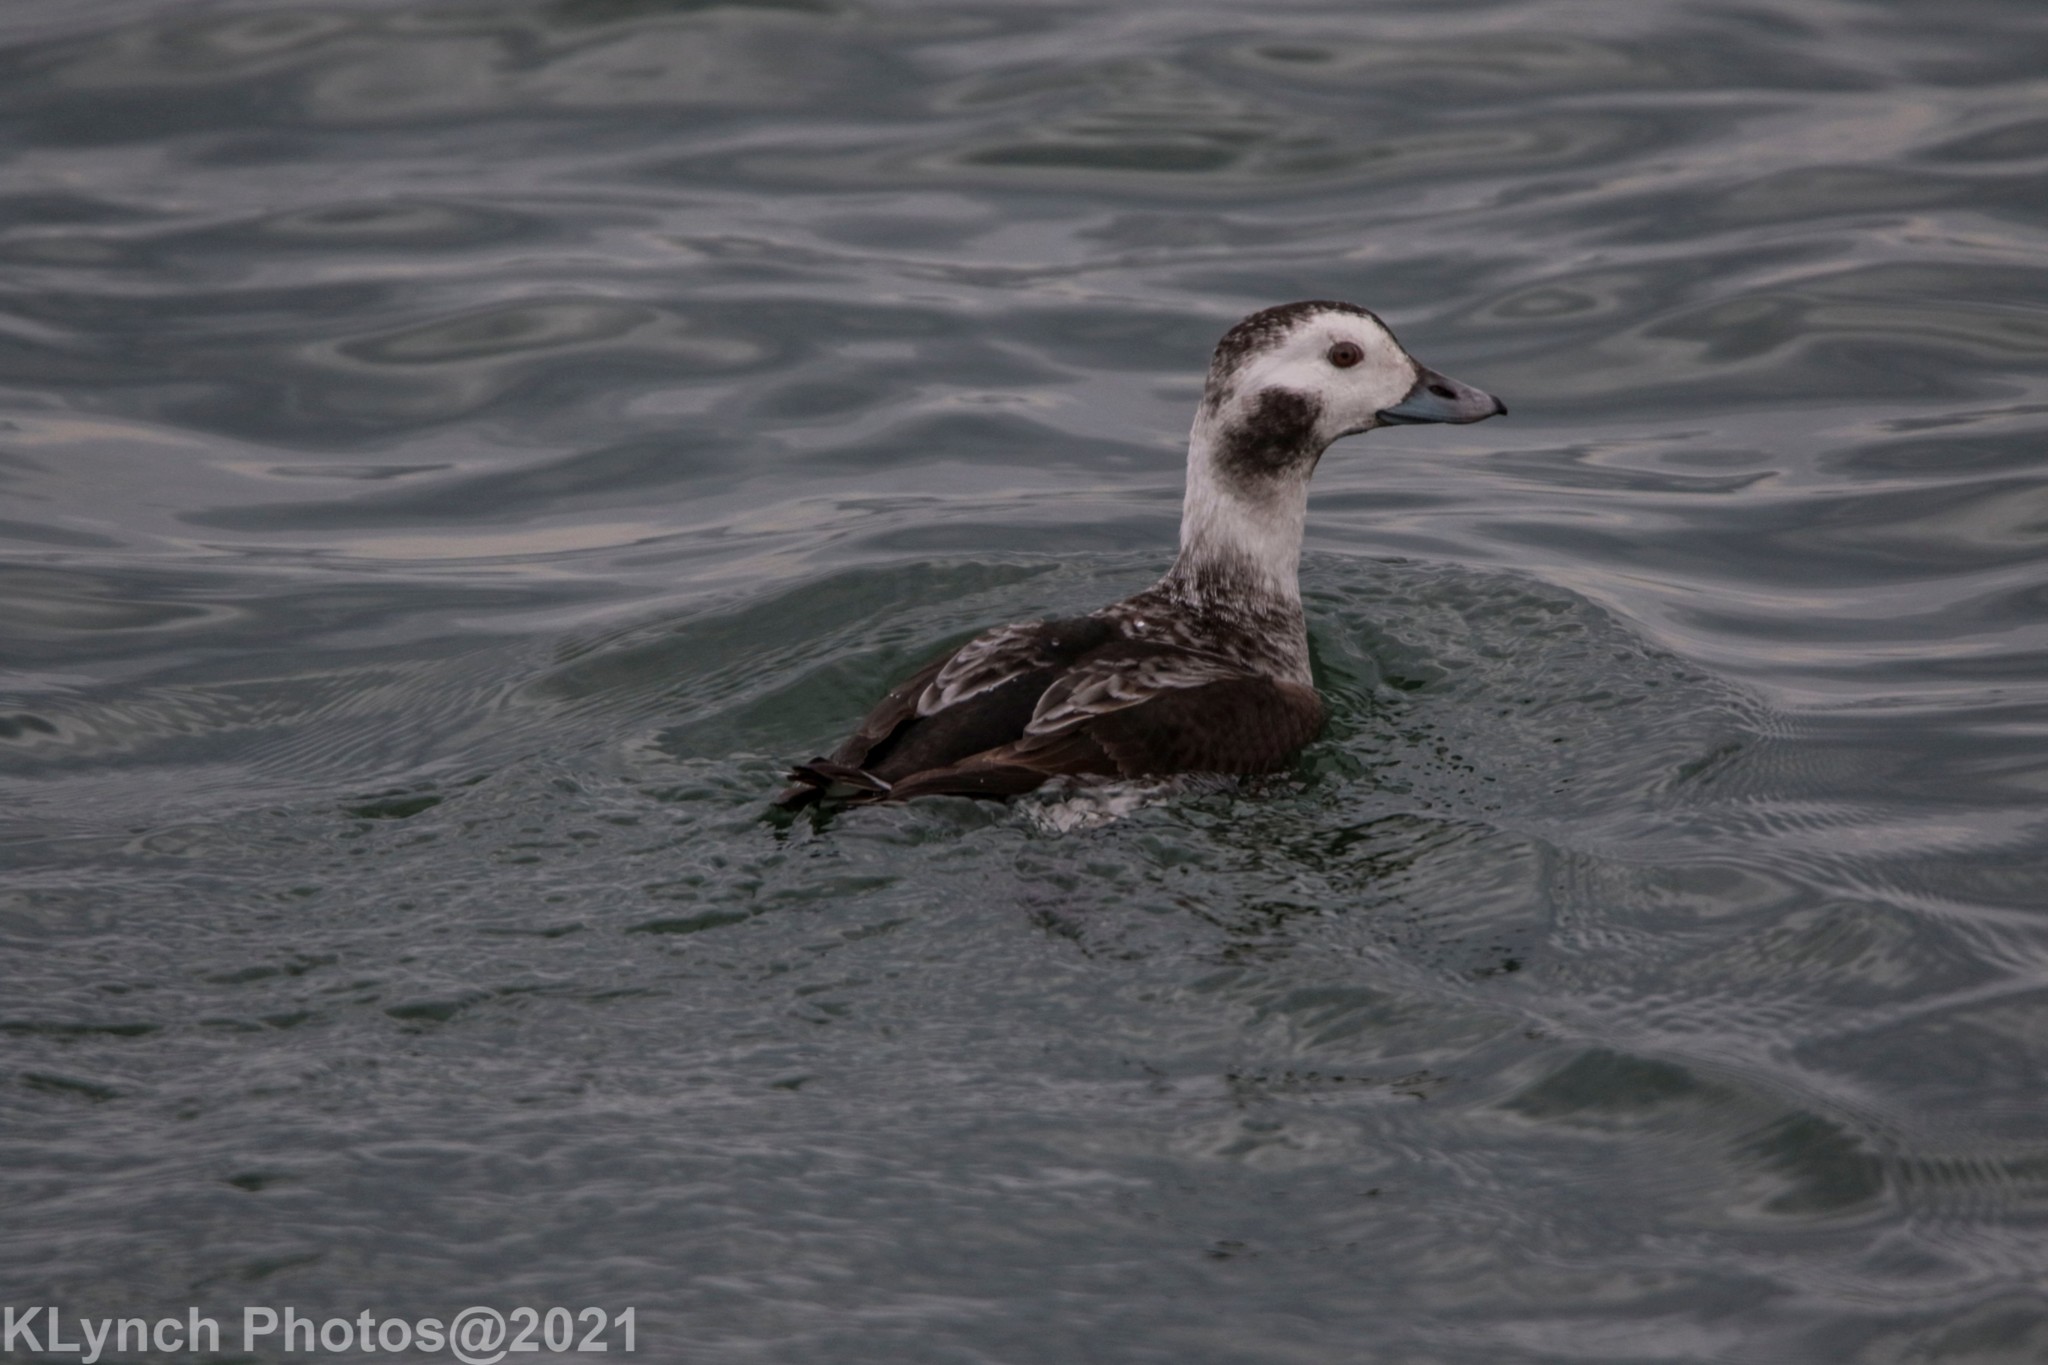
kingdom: Animalia
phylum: Chordata
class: Aves
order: Anseriformes
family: Anatidae
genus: Clangula
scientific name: Clangula hyemalis
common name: Long-tailed duck
